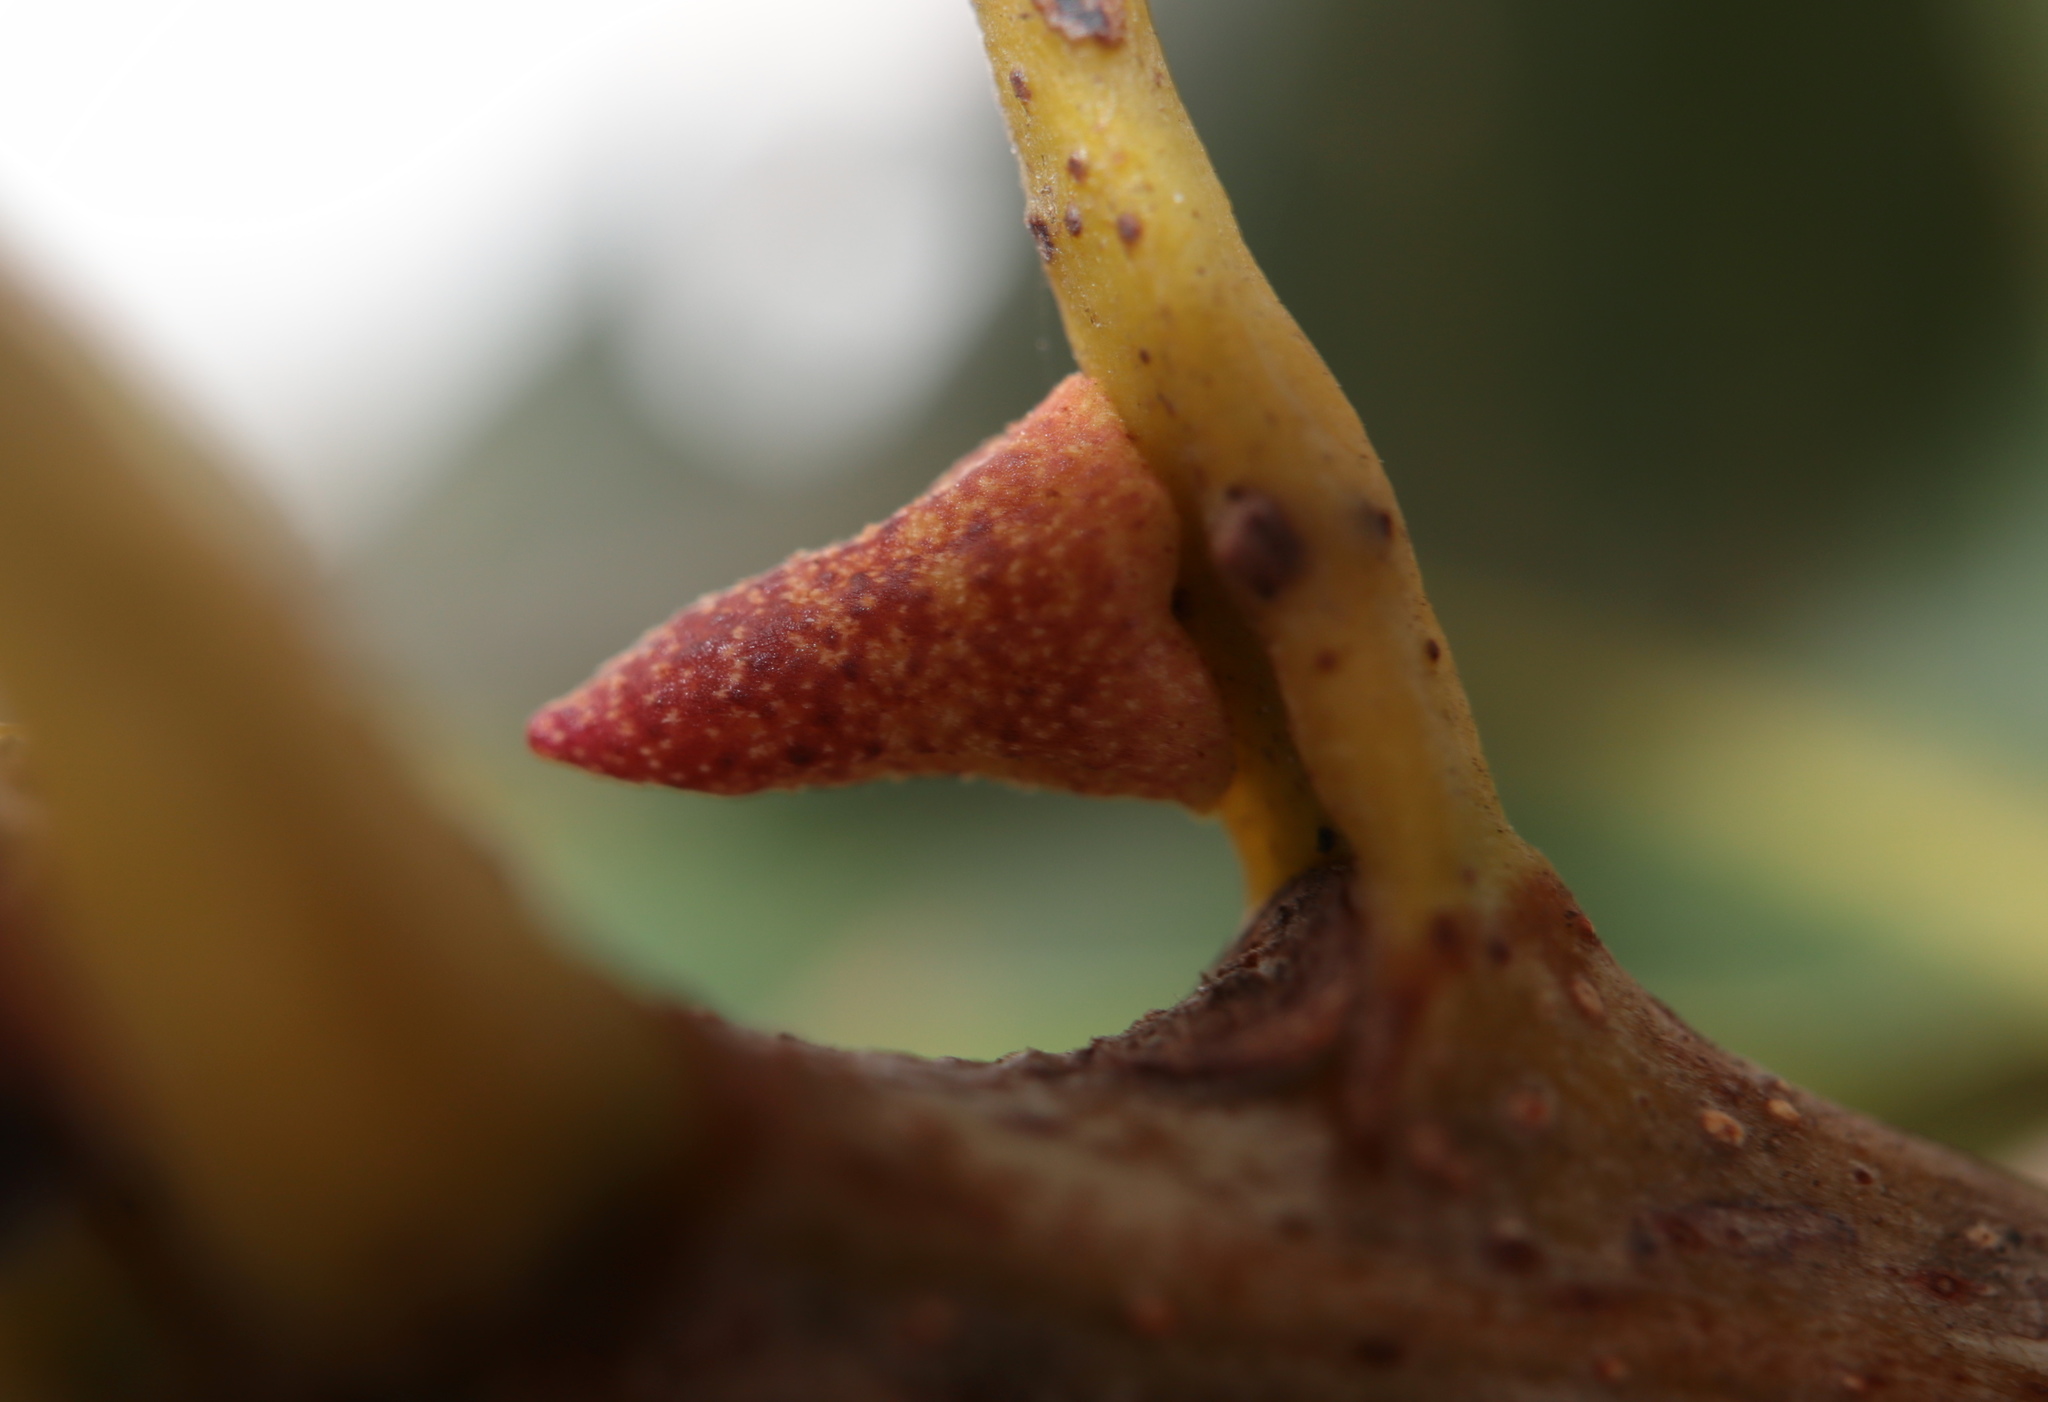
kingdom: Animalia
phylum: Arthropoda
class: Insecta
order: Hymenoptera
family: Cynipidae
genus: Zopheroteras
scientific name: Zopheroteras
